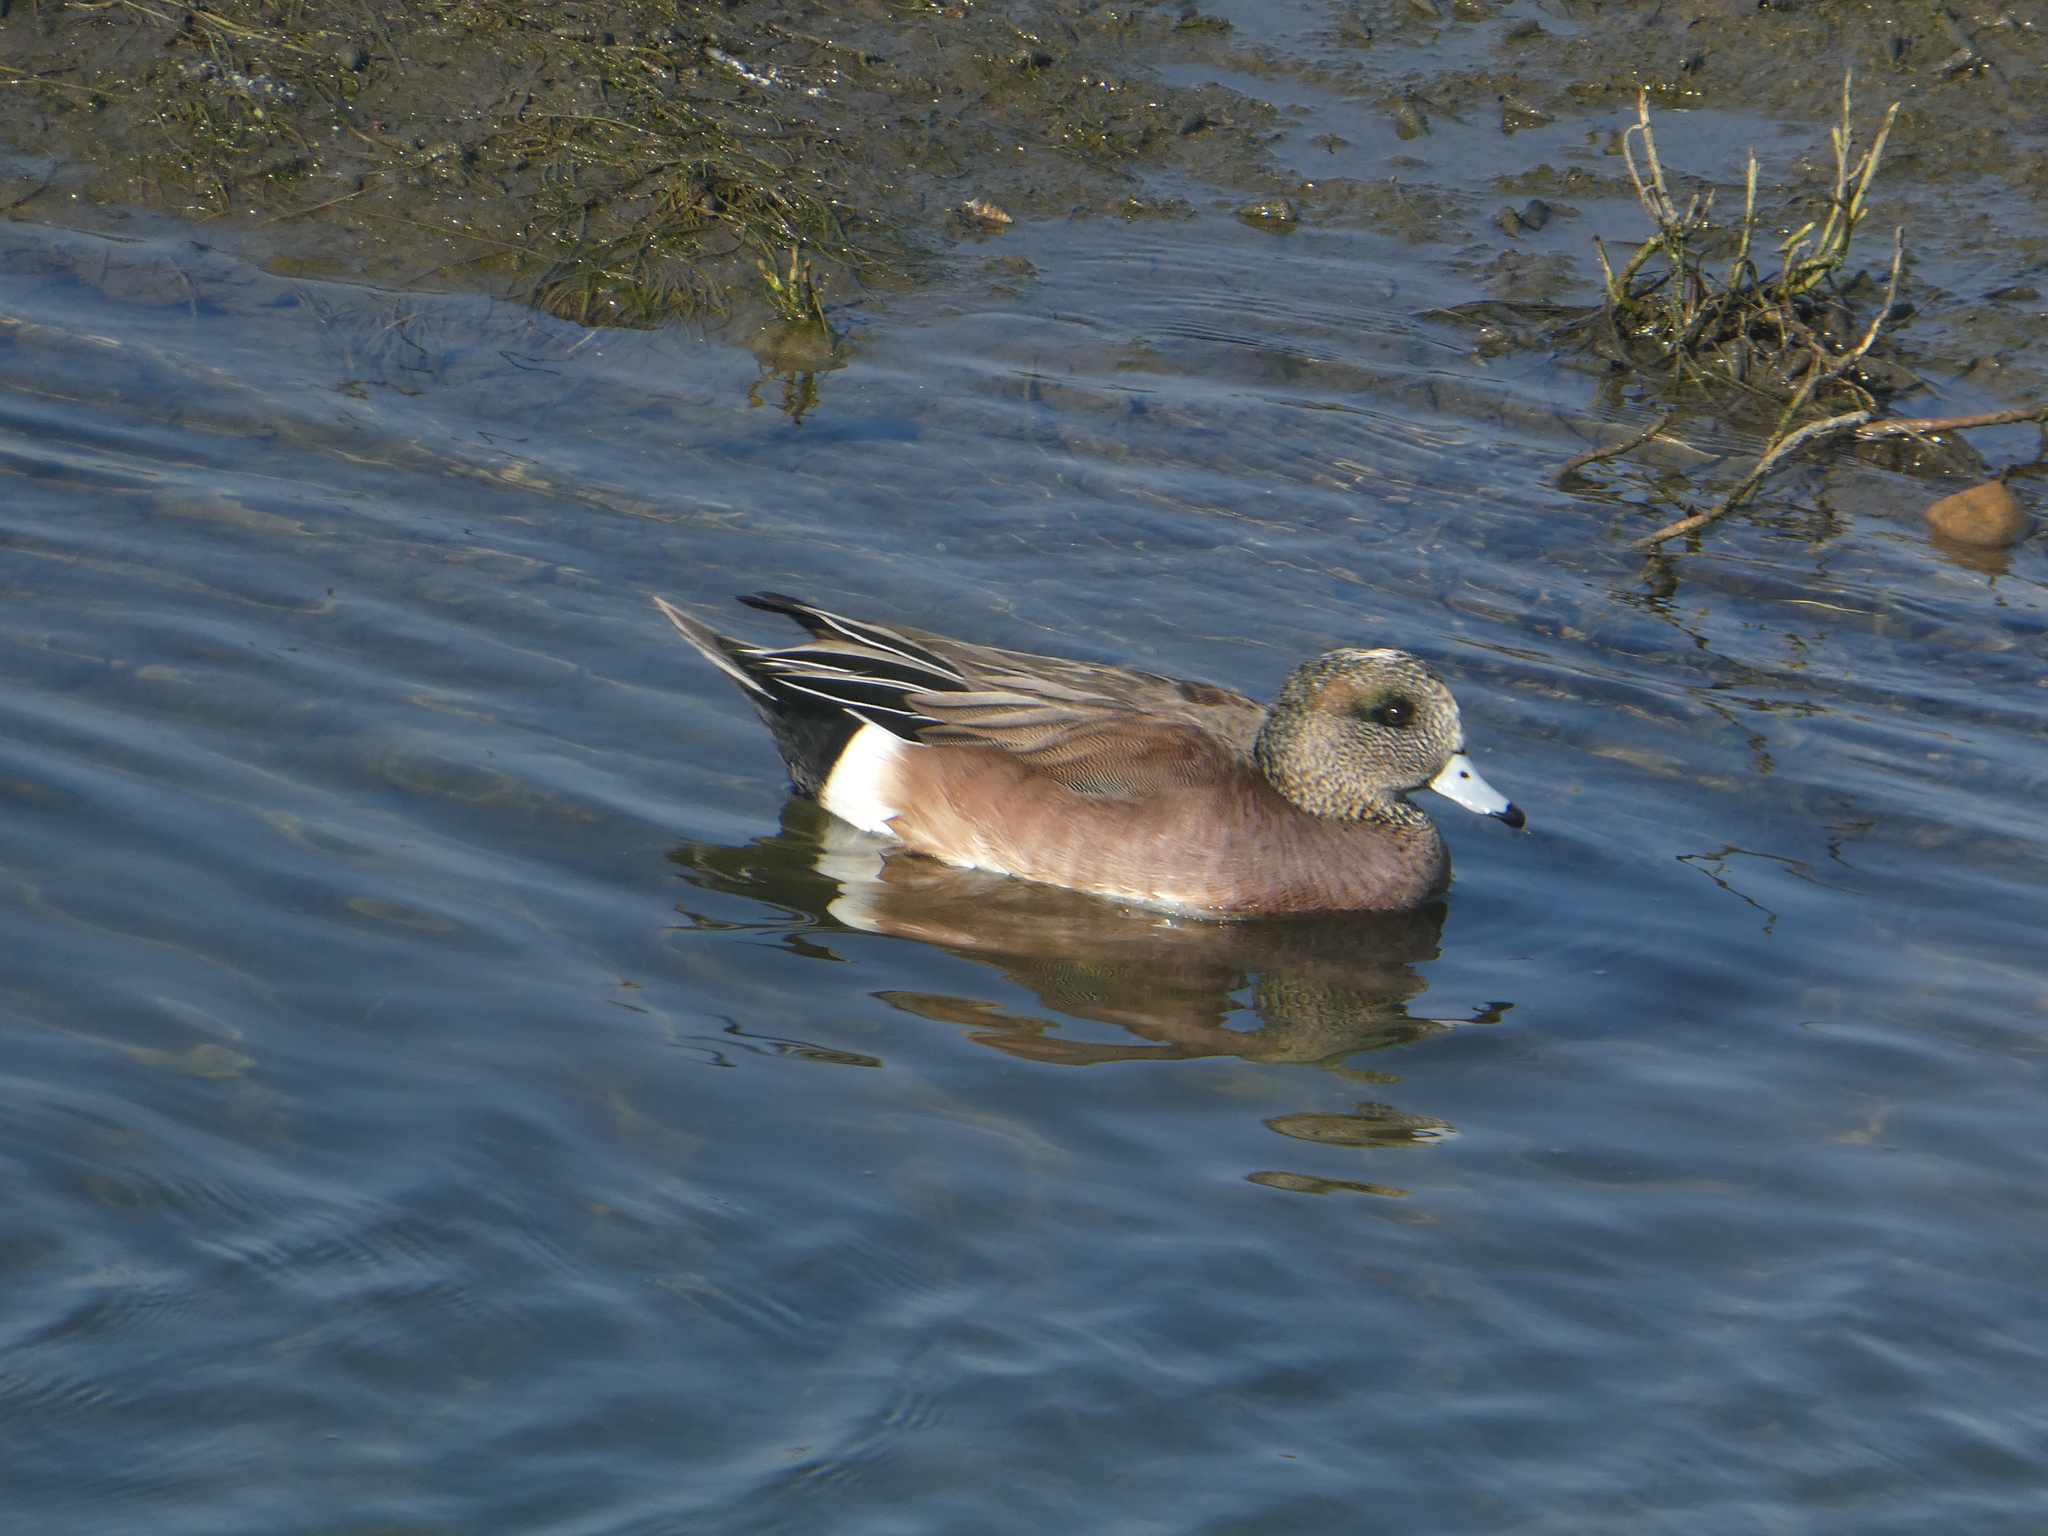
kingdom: Animalia
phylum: Chordata
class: Aves
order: Anseriformes
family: Anatidae
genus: Mareca
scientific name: Mareca americana
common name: American wigeon
